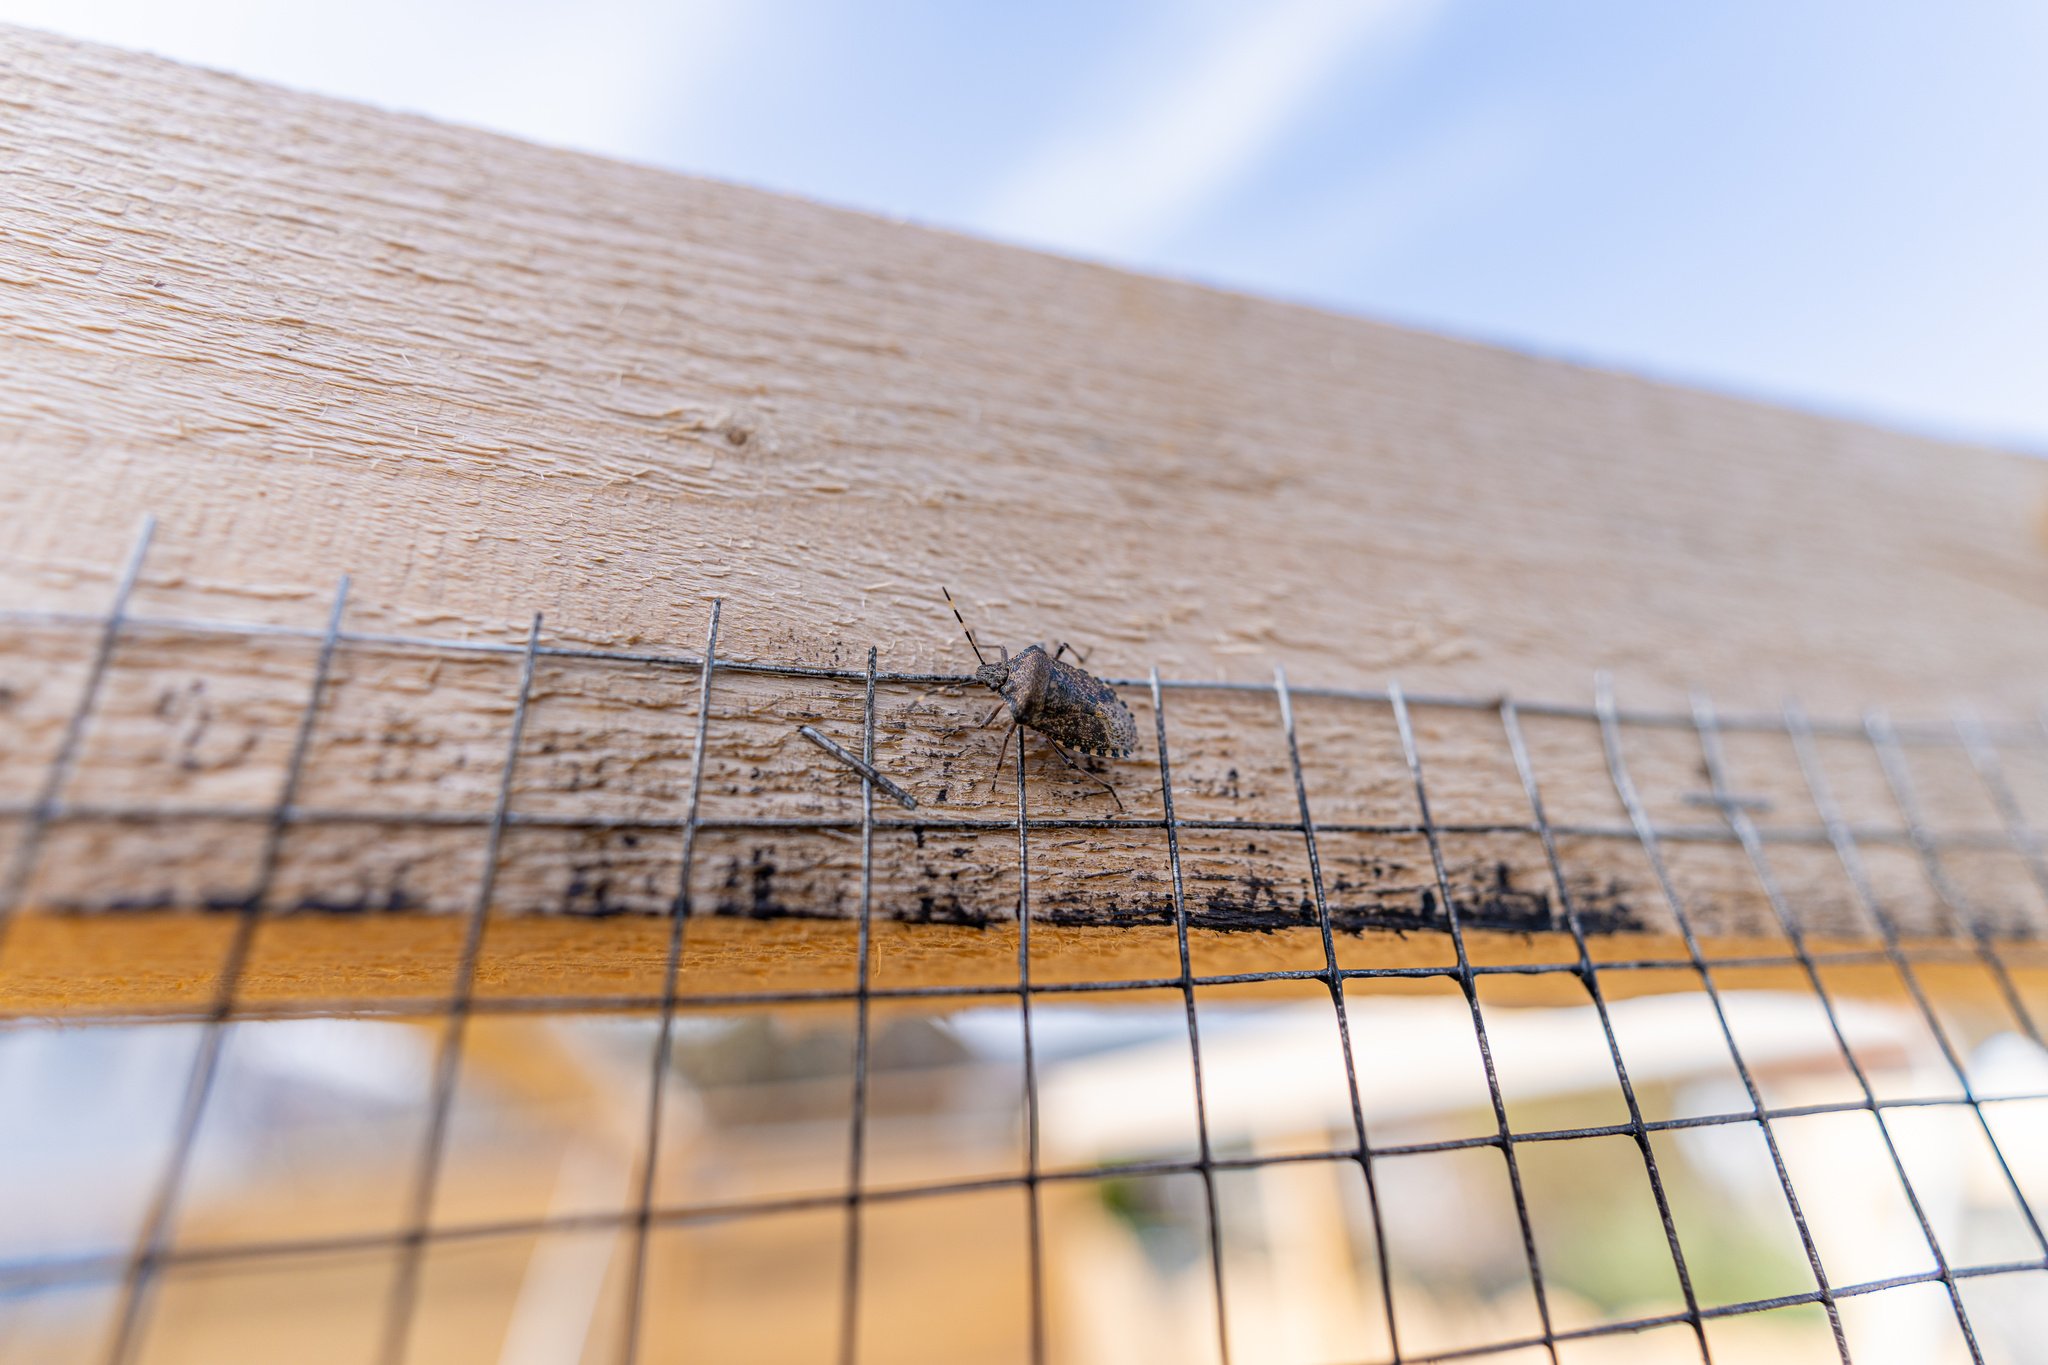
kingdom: Animalia
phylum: Arthropoda
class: Insecta
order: Hemiptera
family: Pentatomidae
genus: Rhaphigaster
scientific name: Rhaphigaster nebulosa
